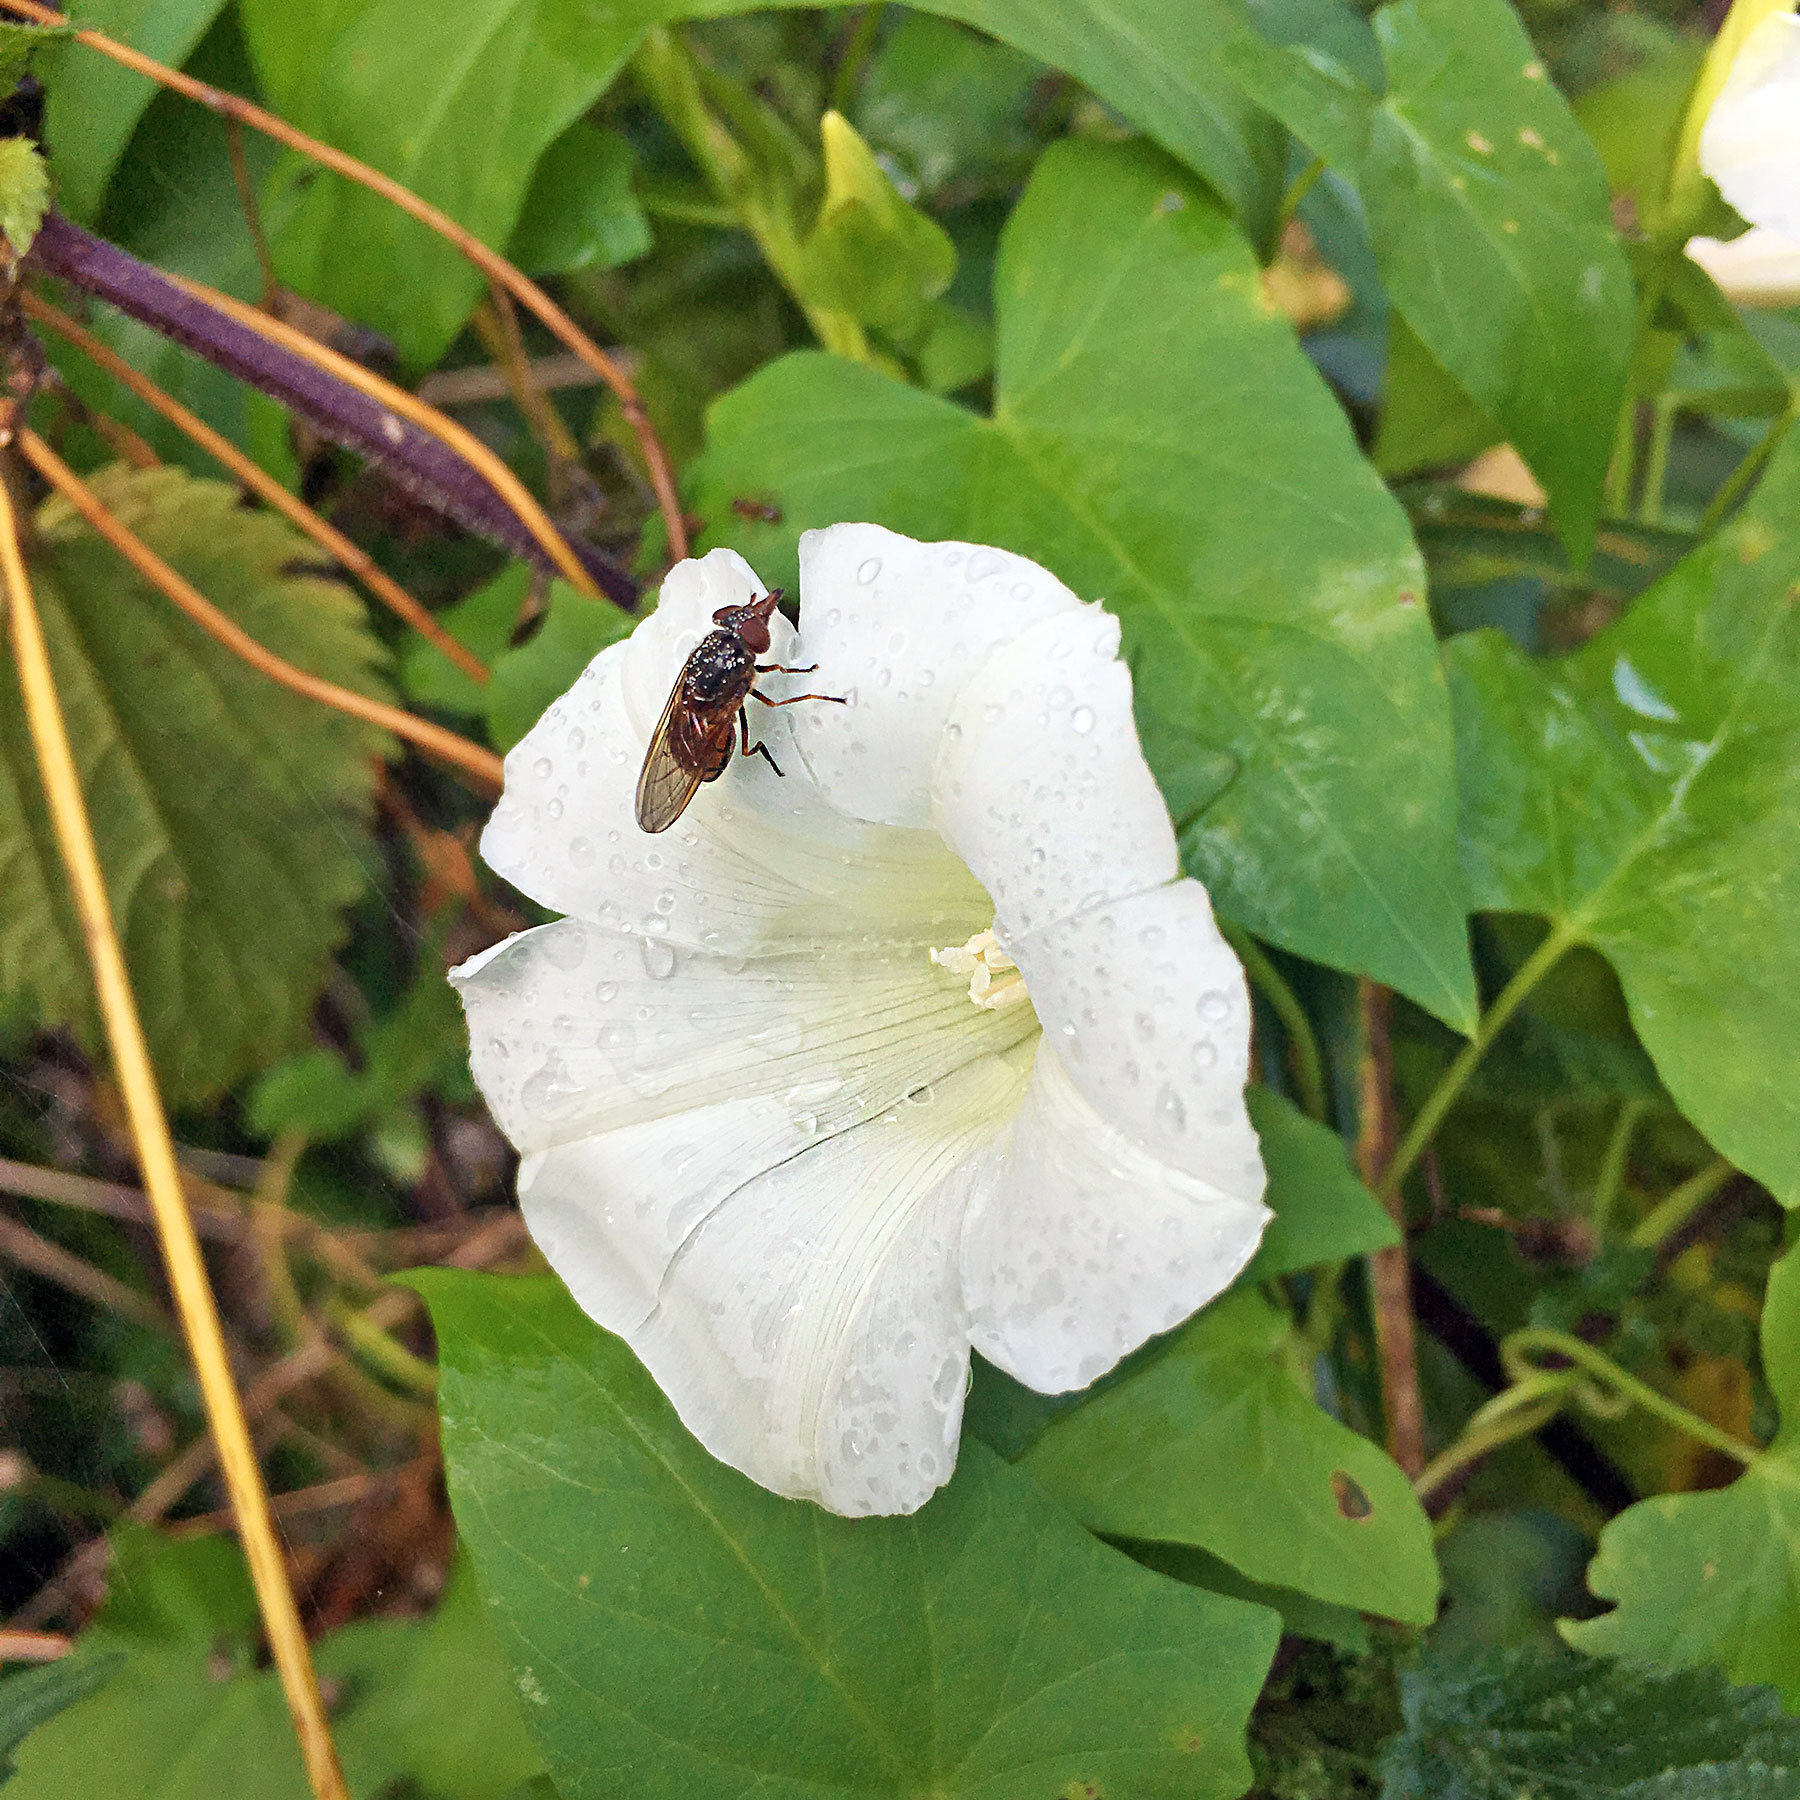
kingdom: Animalia
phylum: Arthropoda
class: Insecta
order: Diptera
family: Syrphidae
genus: Rhingia
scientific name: Rhingia campestris
